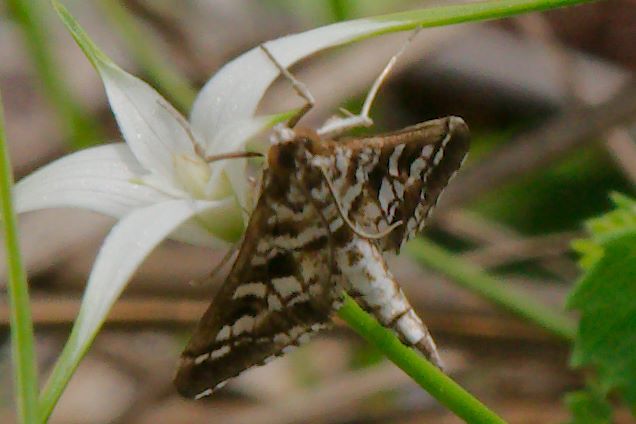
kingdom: Animalia
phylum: Arthropoda
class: Insecta
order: Lepidoptera
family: Crambidae
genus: Epipagis
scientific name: Epipagis forsythae
